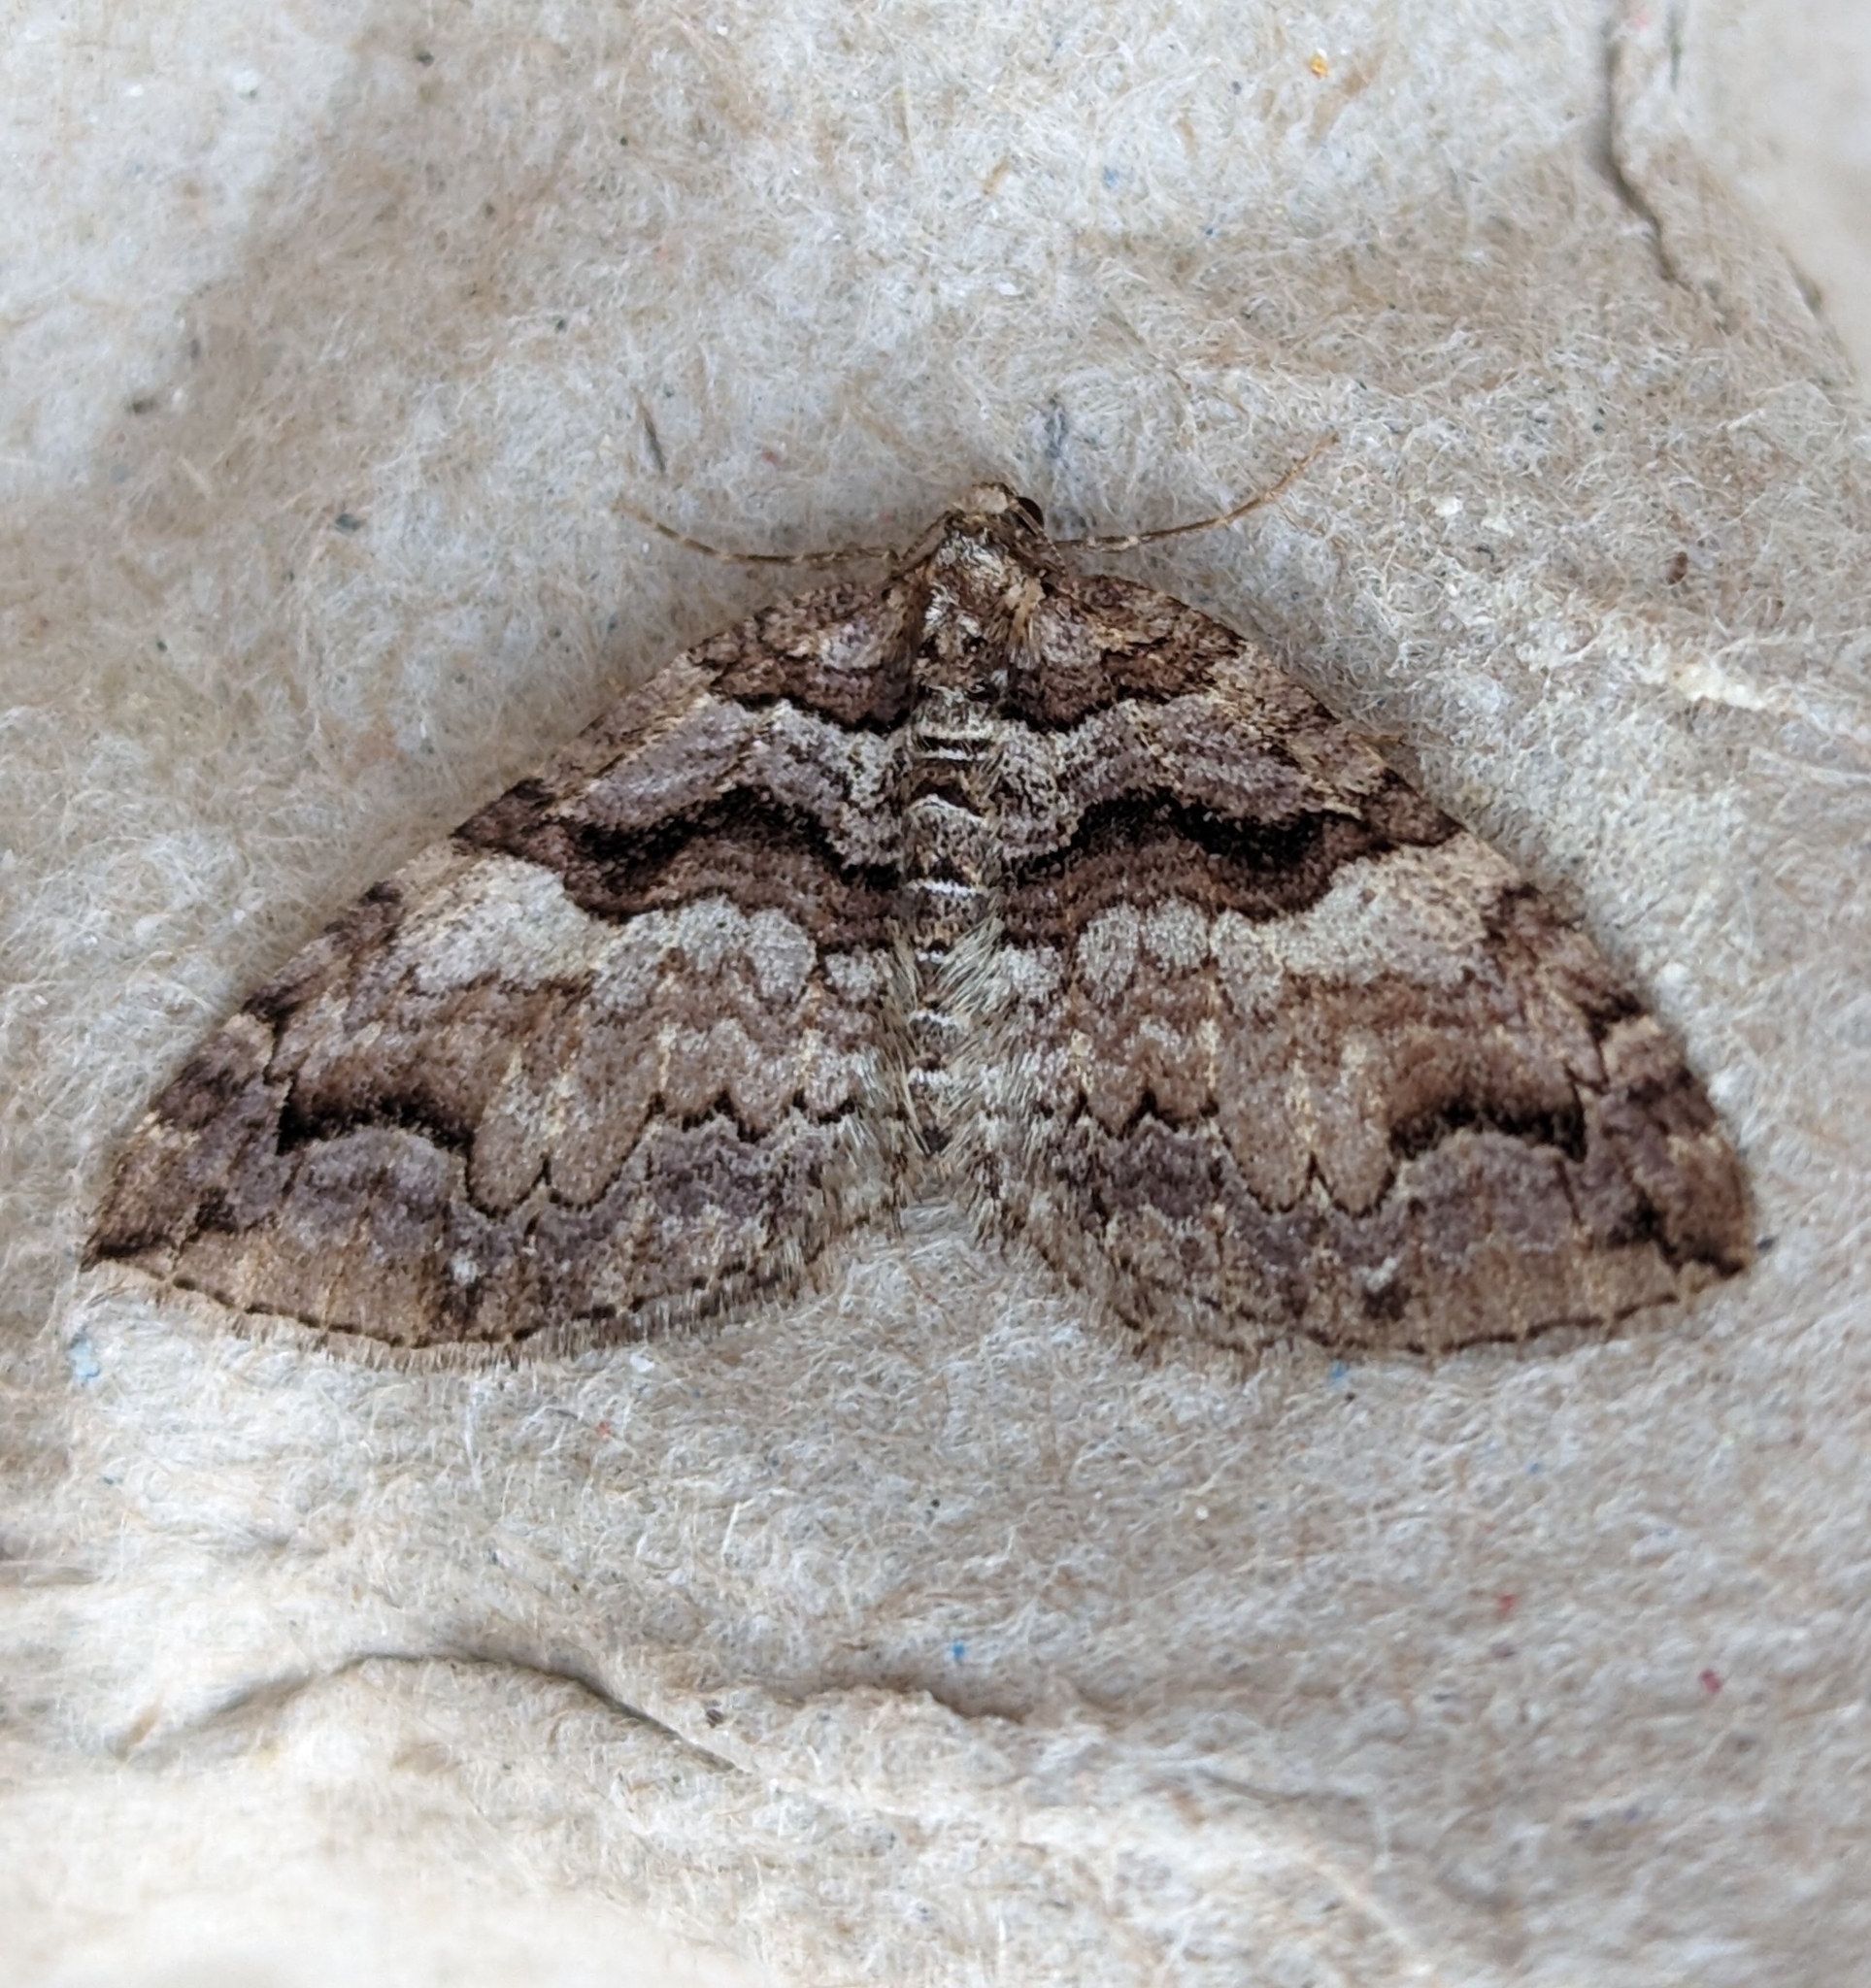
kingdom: Animalia
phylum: Arthropoda
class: Insecta
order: Lepidoptera
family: Geometridae
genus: Anticlea
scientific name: Anticlea vasiliata
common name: Variable carpet
